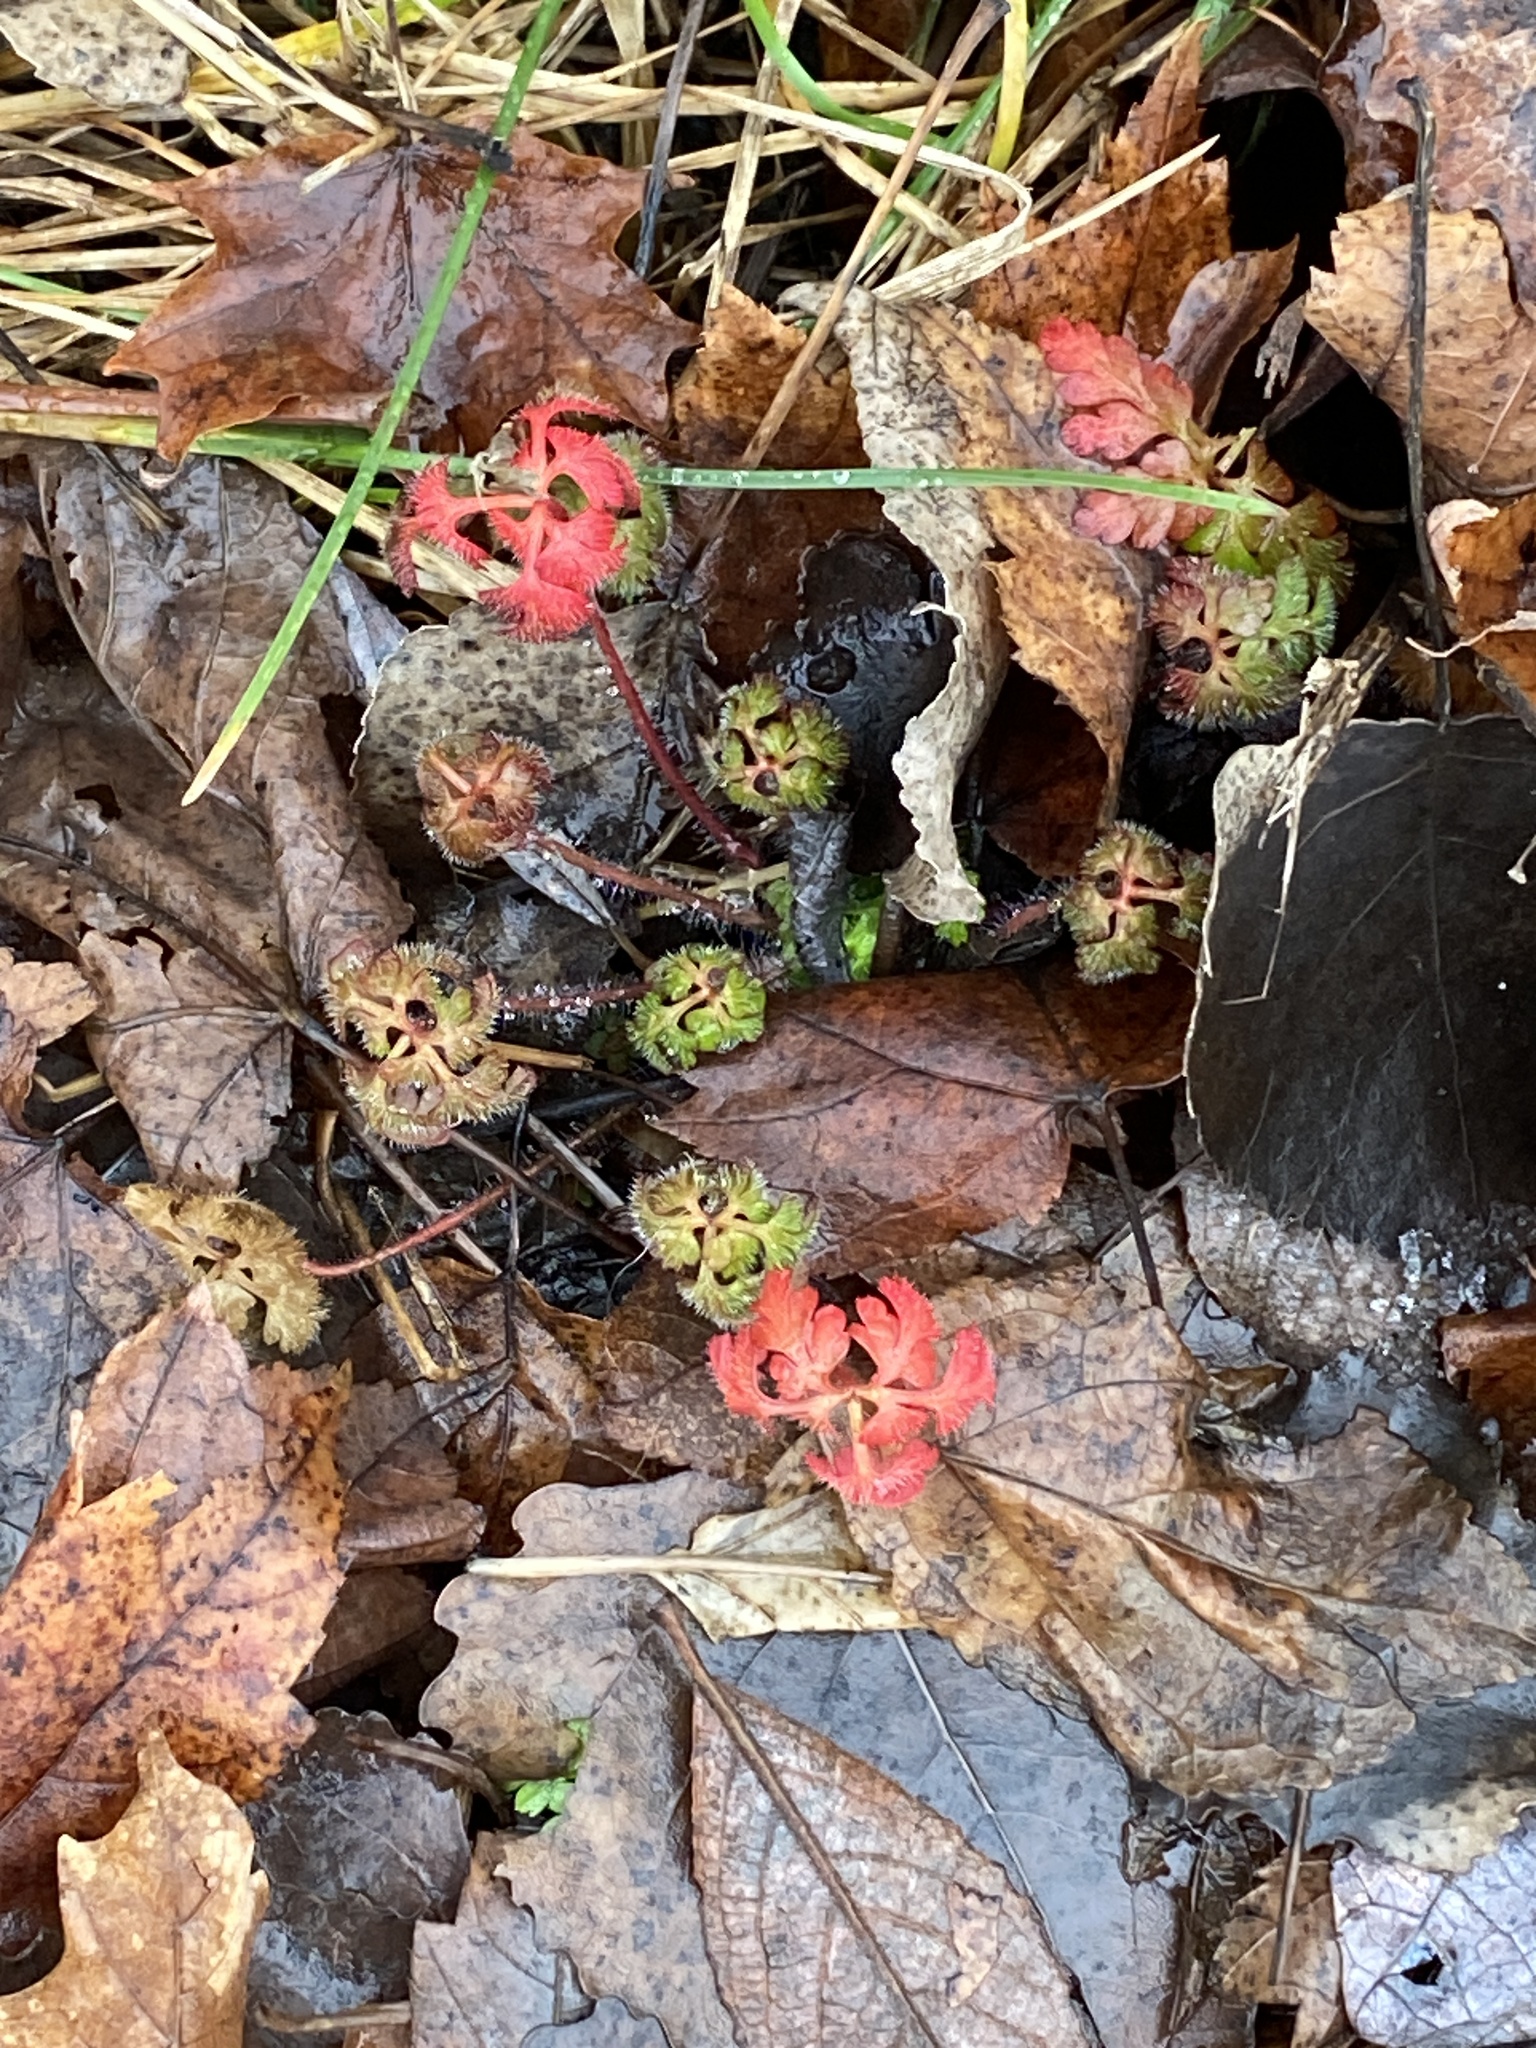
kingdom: Plantae
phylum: Tracheophyta
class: Magnoliopsida
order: Geraniales
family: Geraniaceae
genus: Geranium
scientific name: Geranium robertianum
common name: Herb-robert
